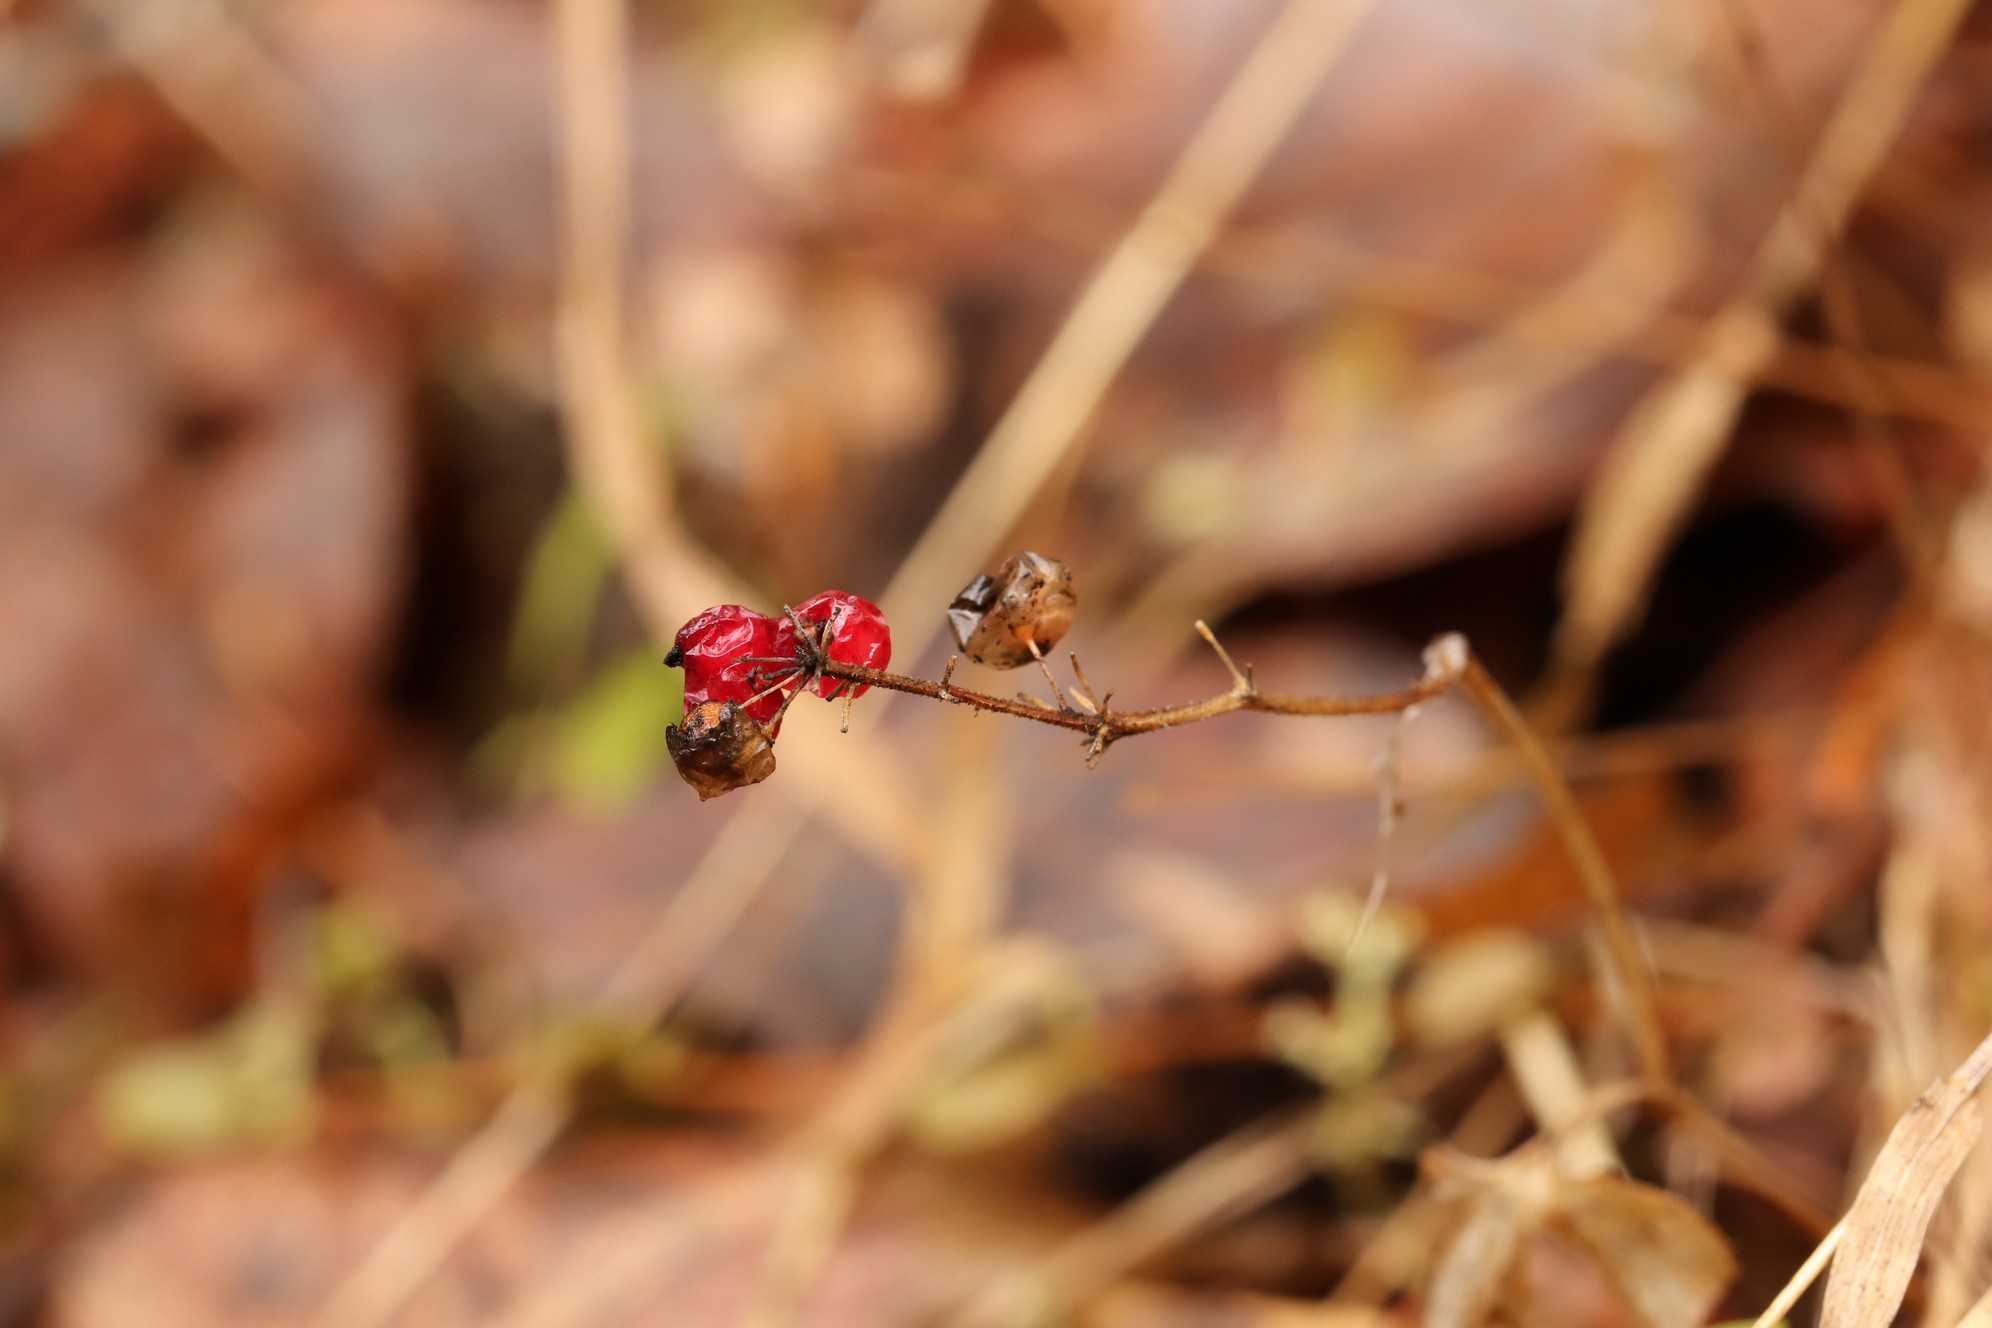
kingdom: Plantae
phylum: Tracheophyta
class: Liliopsida
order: Asparagales
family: Asparagaceae
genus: Maianthemum
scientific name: Maianthemum bifolium
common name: May lily
